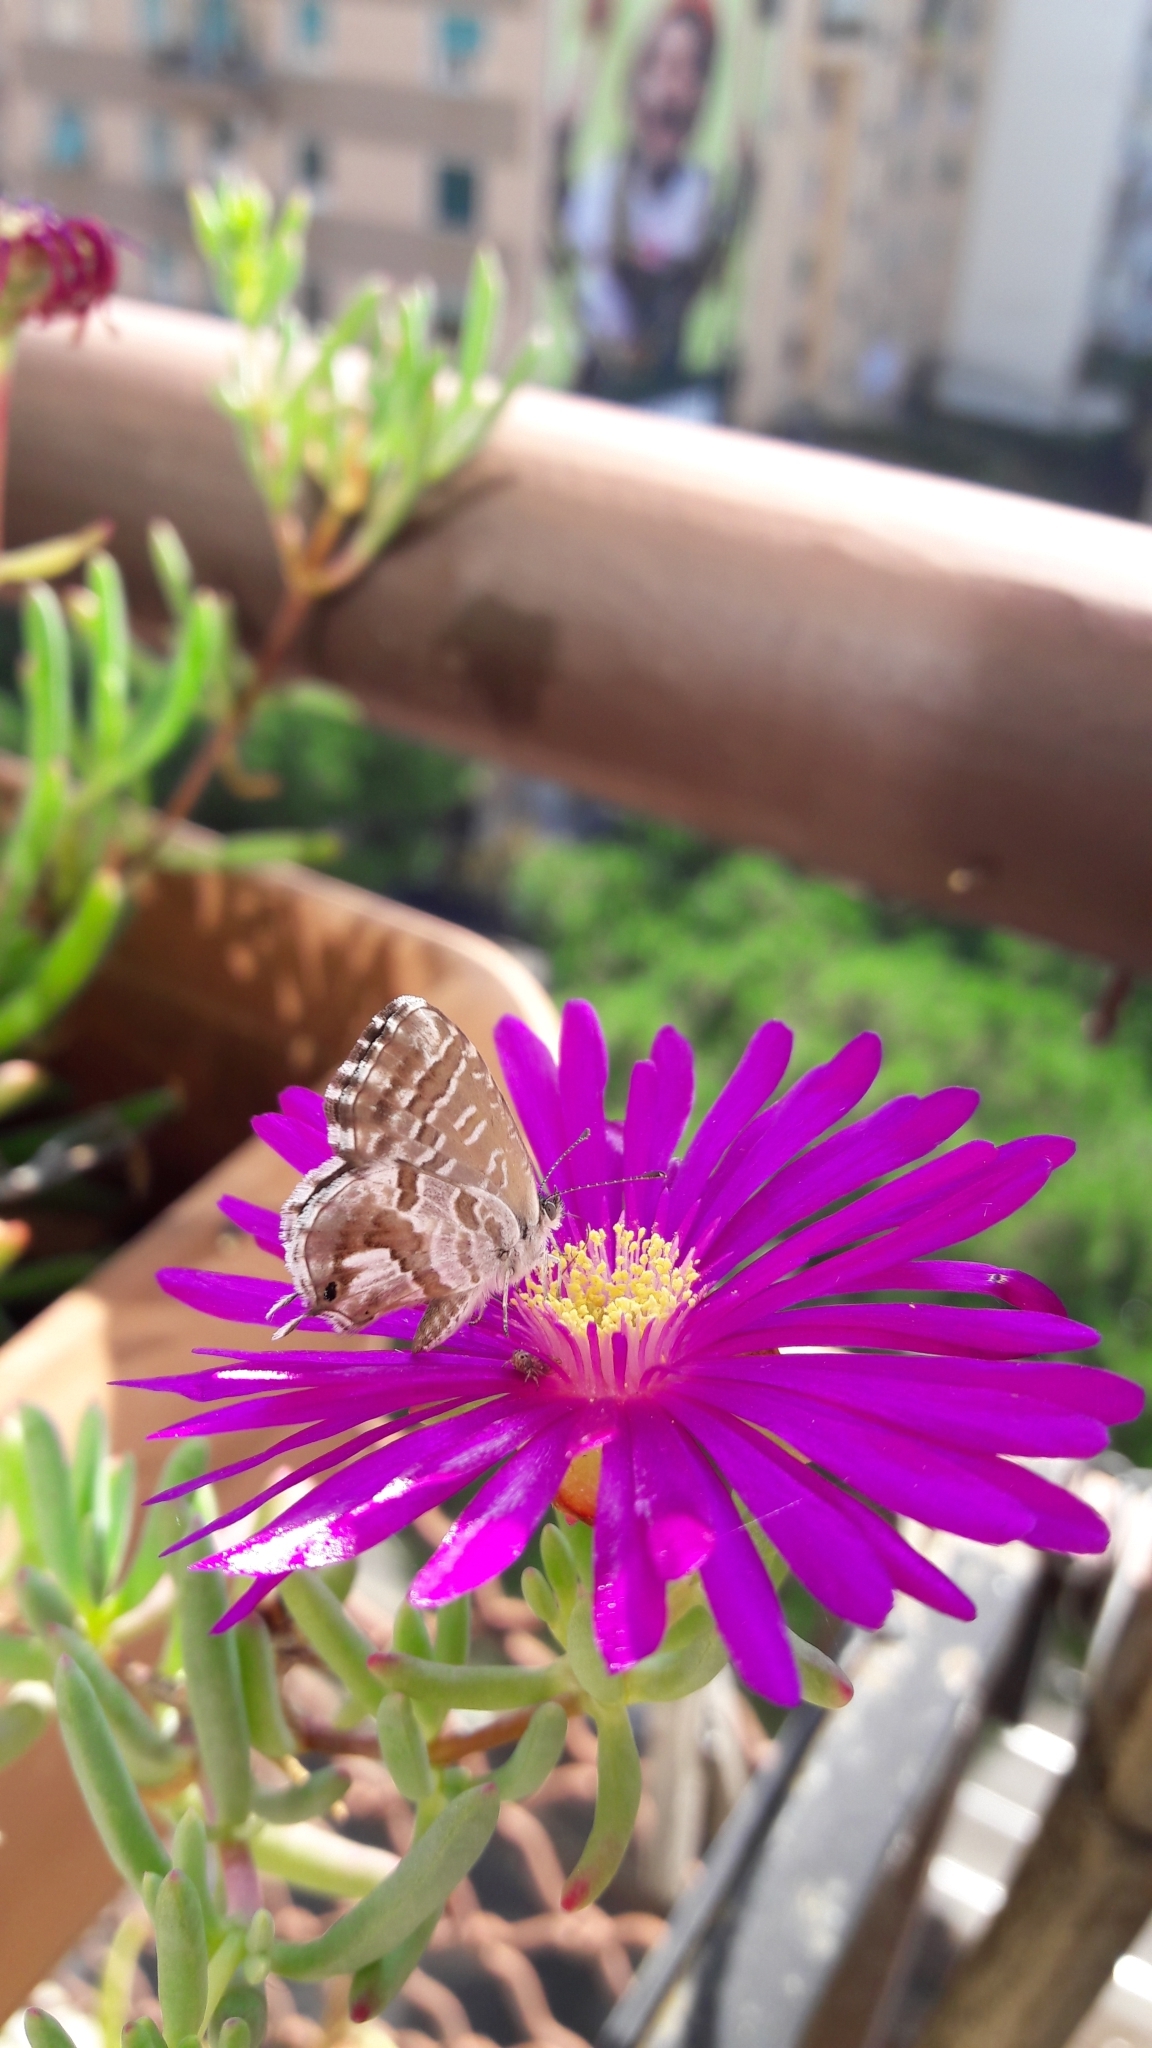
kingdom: Animalia
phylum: Arthropoda
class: Insecta
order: Lepidoptera
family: Lycaenidae
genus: Cacyreus
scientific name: Cacyreus marshalli
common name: Geranium bronze
